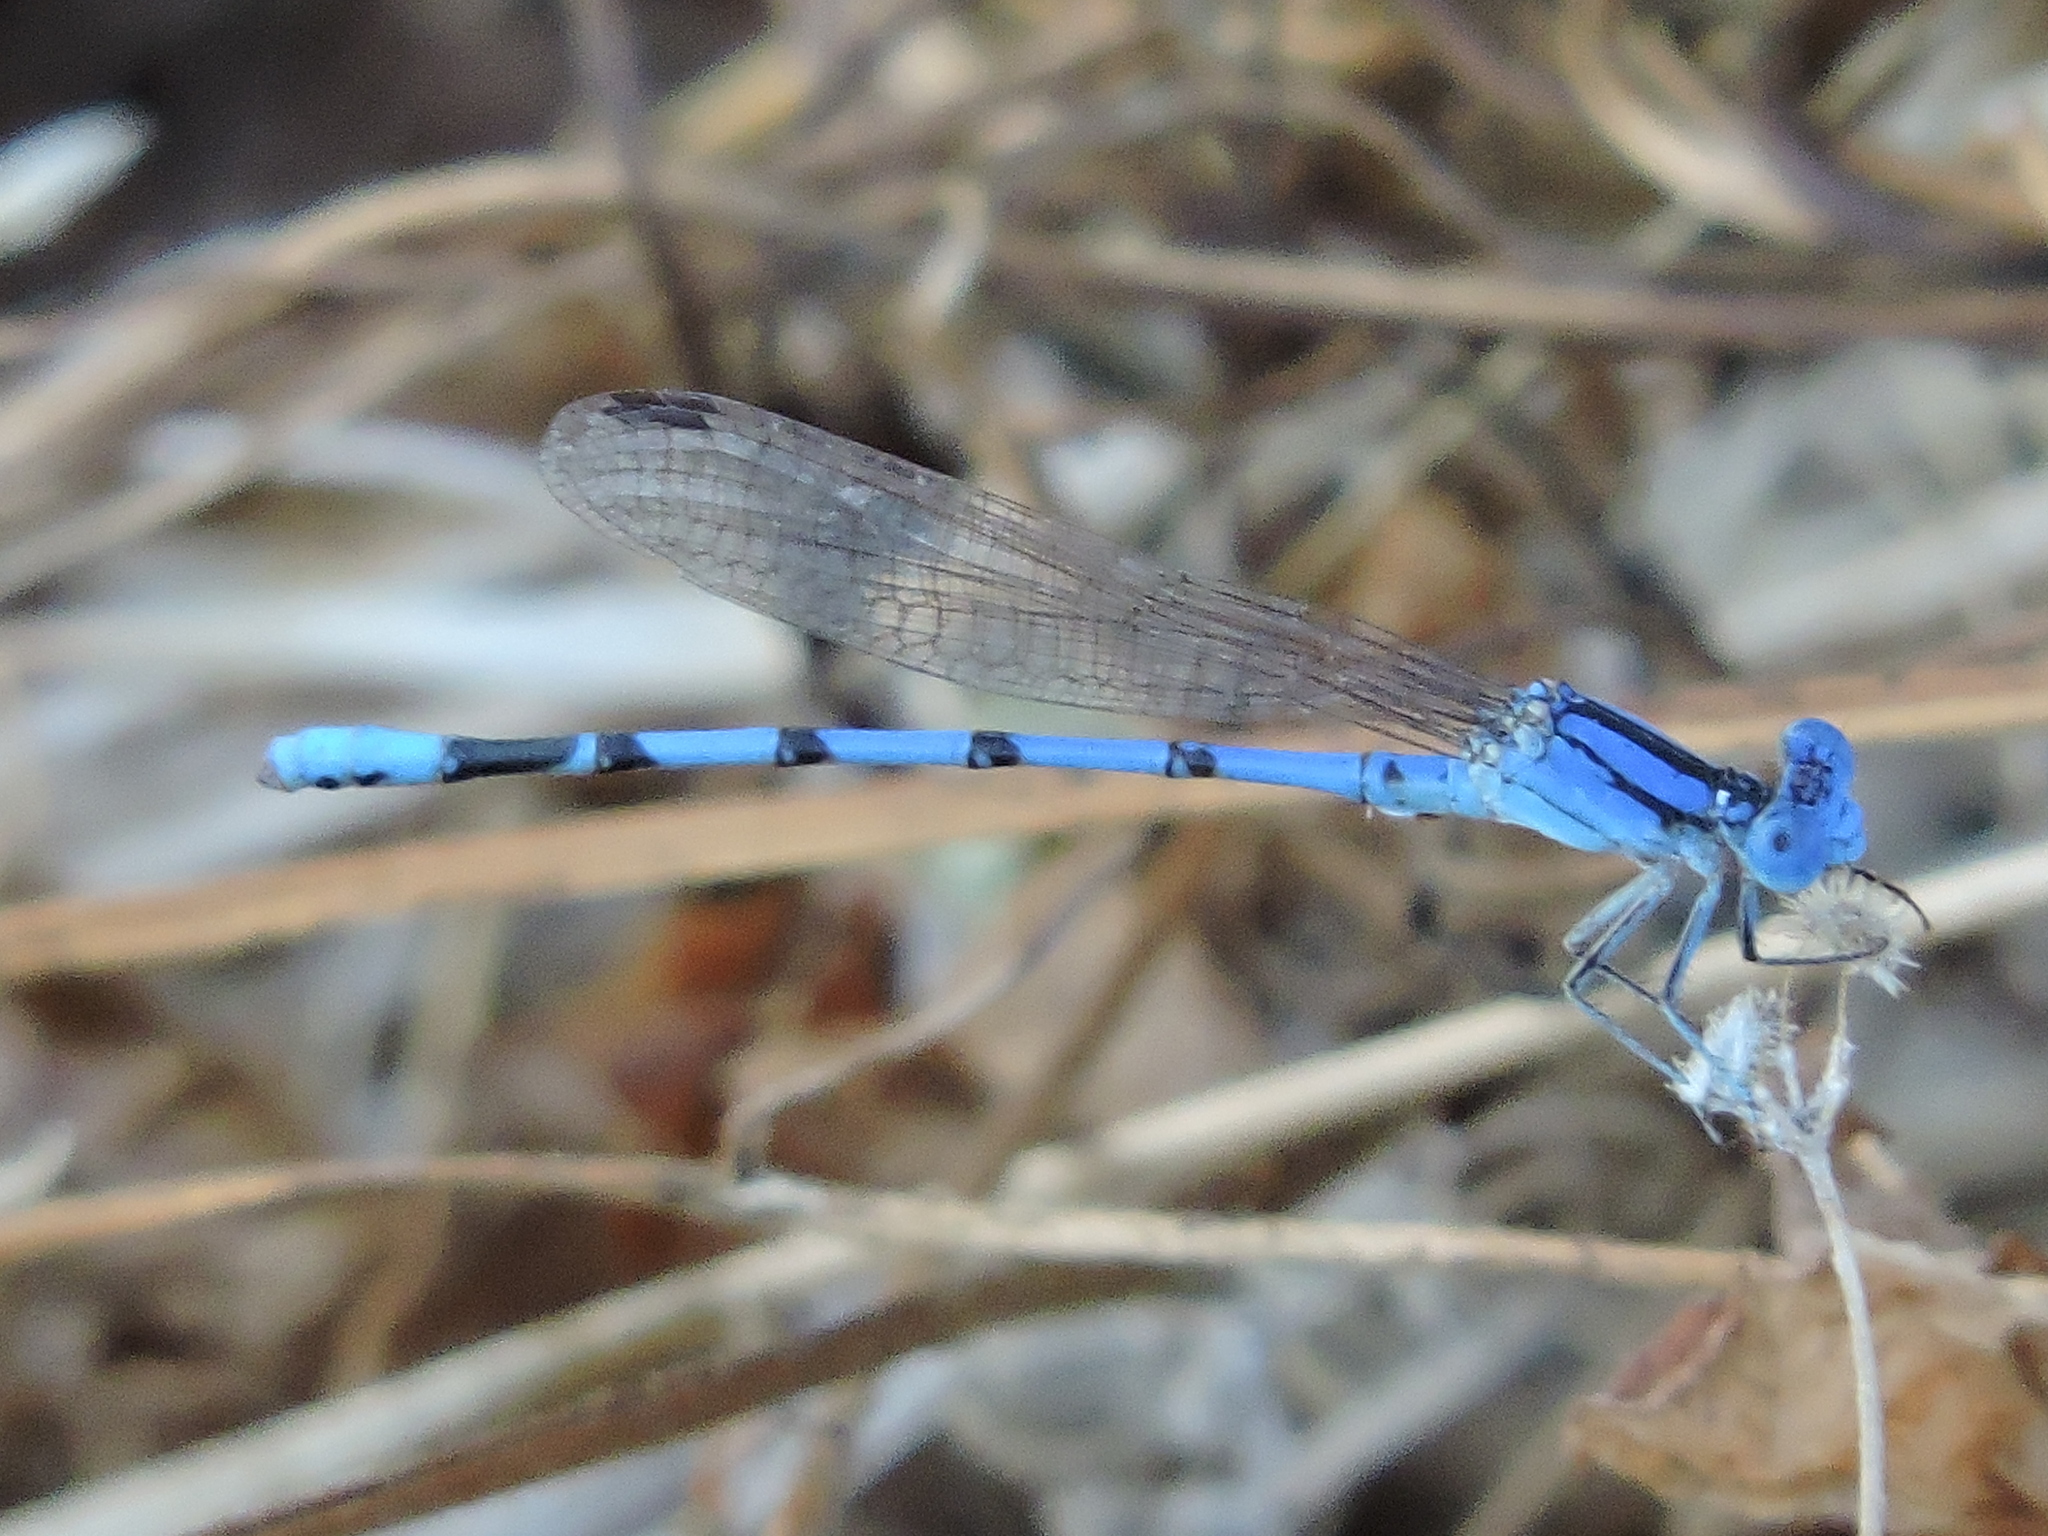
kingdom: Animalia
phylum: Arthropoda
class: Insecta
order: Odonata
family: Coenagrionidae
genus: Argia
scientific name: Argia nahuana
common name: Aztec dancer
